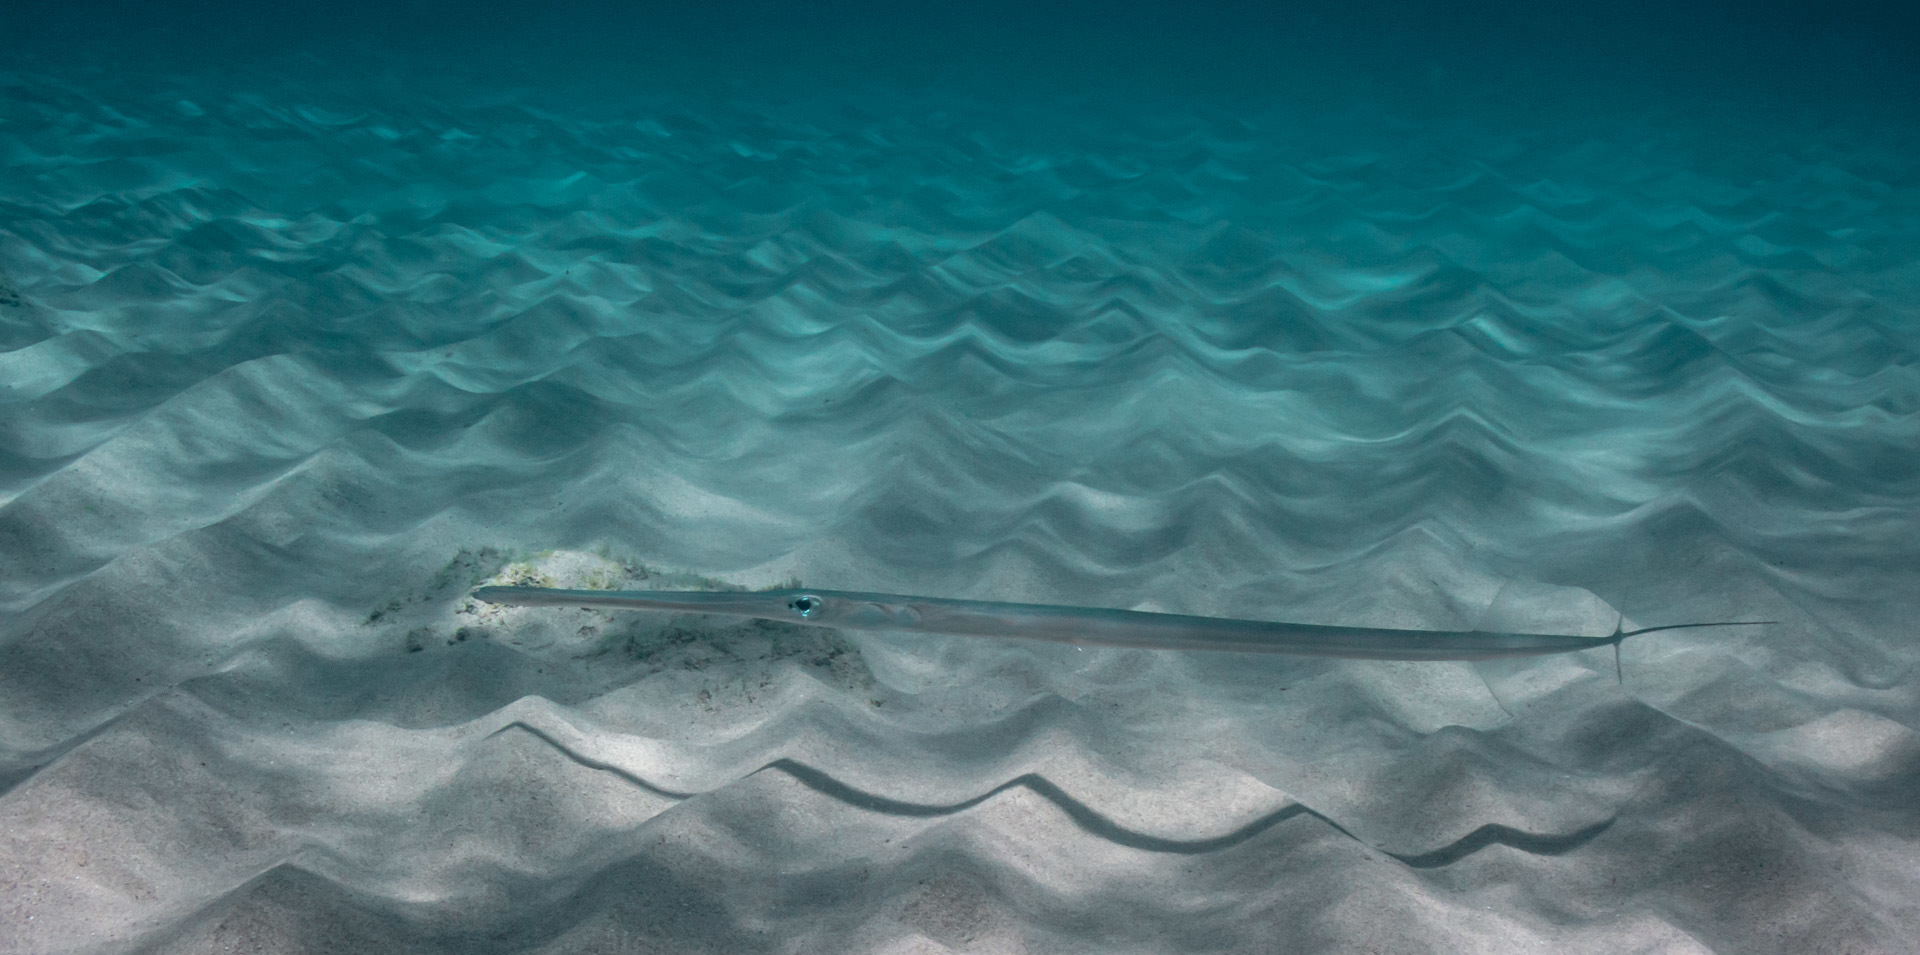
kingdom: Animalia
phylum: Chordata
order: Syngnathiformes
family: Fistulariidae
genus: Fistularia
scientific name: Fistularia commersonii
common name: Bluespotted cornetfish
